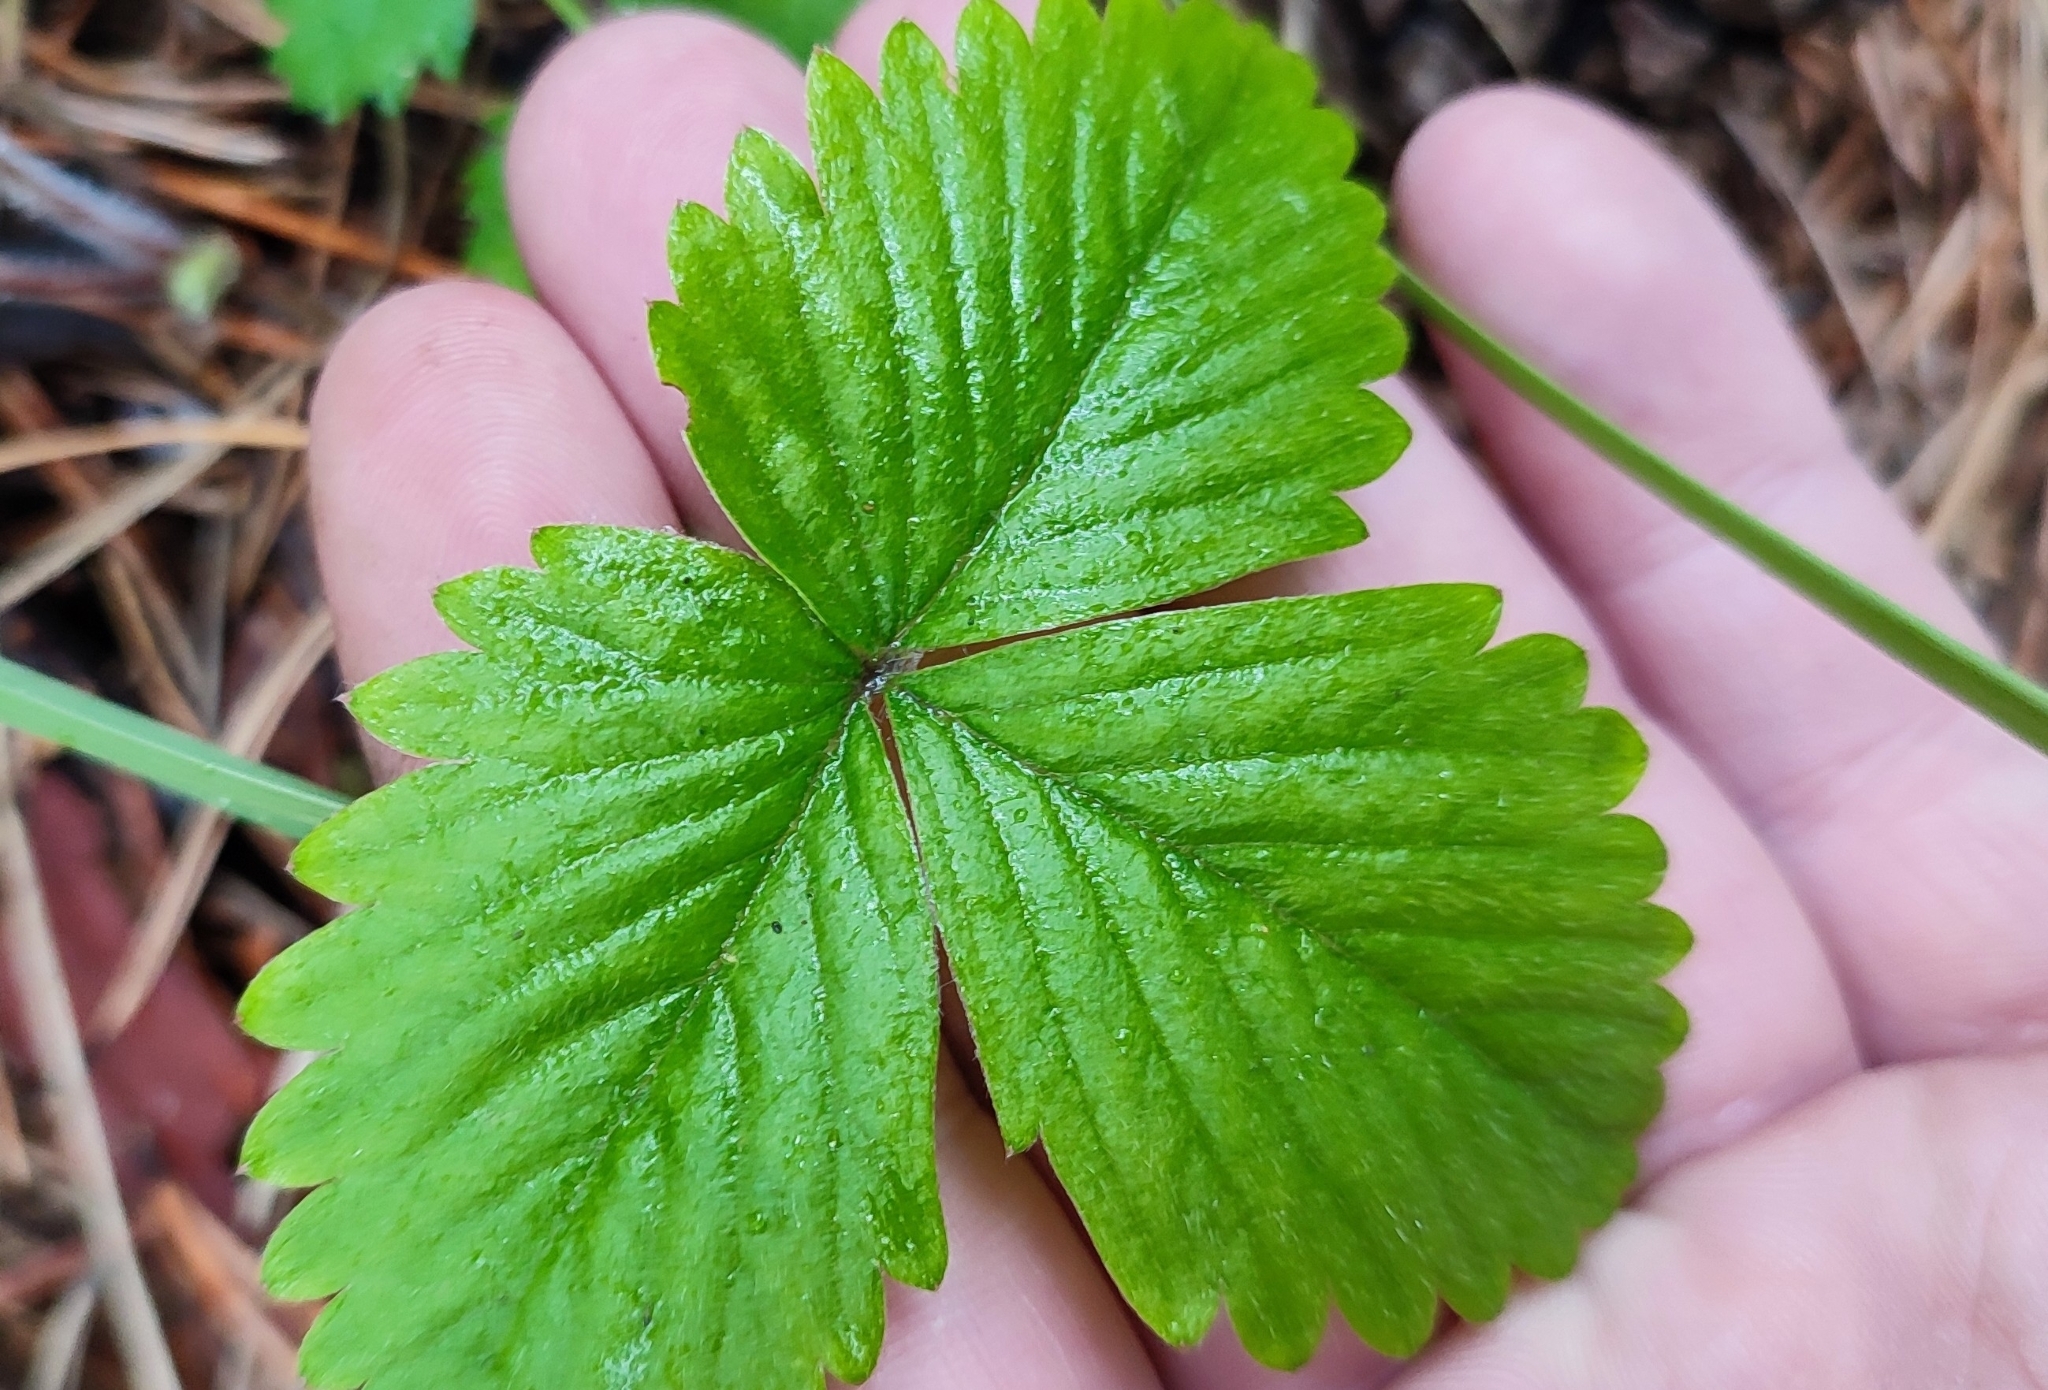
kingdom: Plantae
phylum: Tracheophyta
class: Magnoliopsida
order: Rosales
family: Rosaceae
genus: Fragaria
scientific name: Fragaria vesca
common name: Wild strawberry
